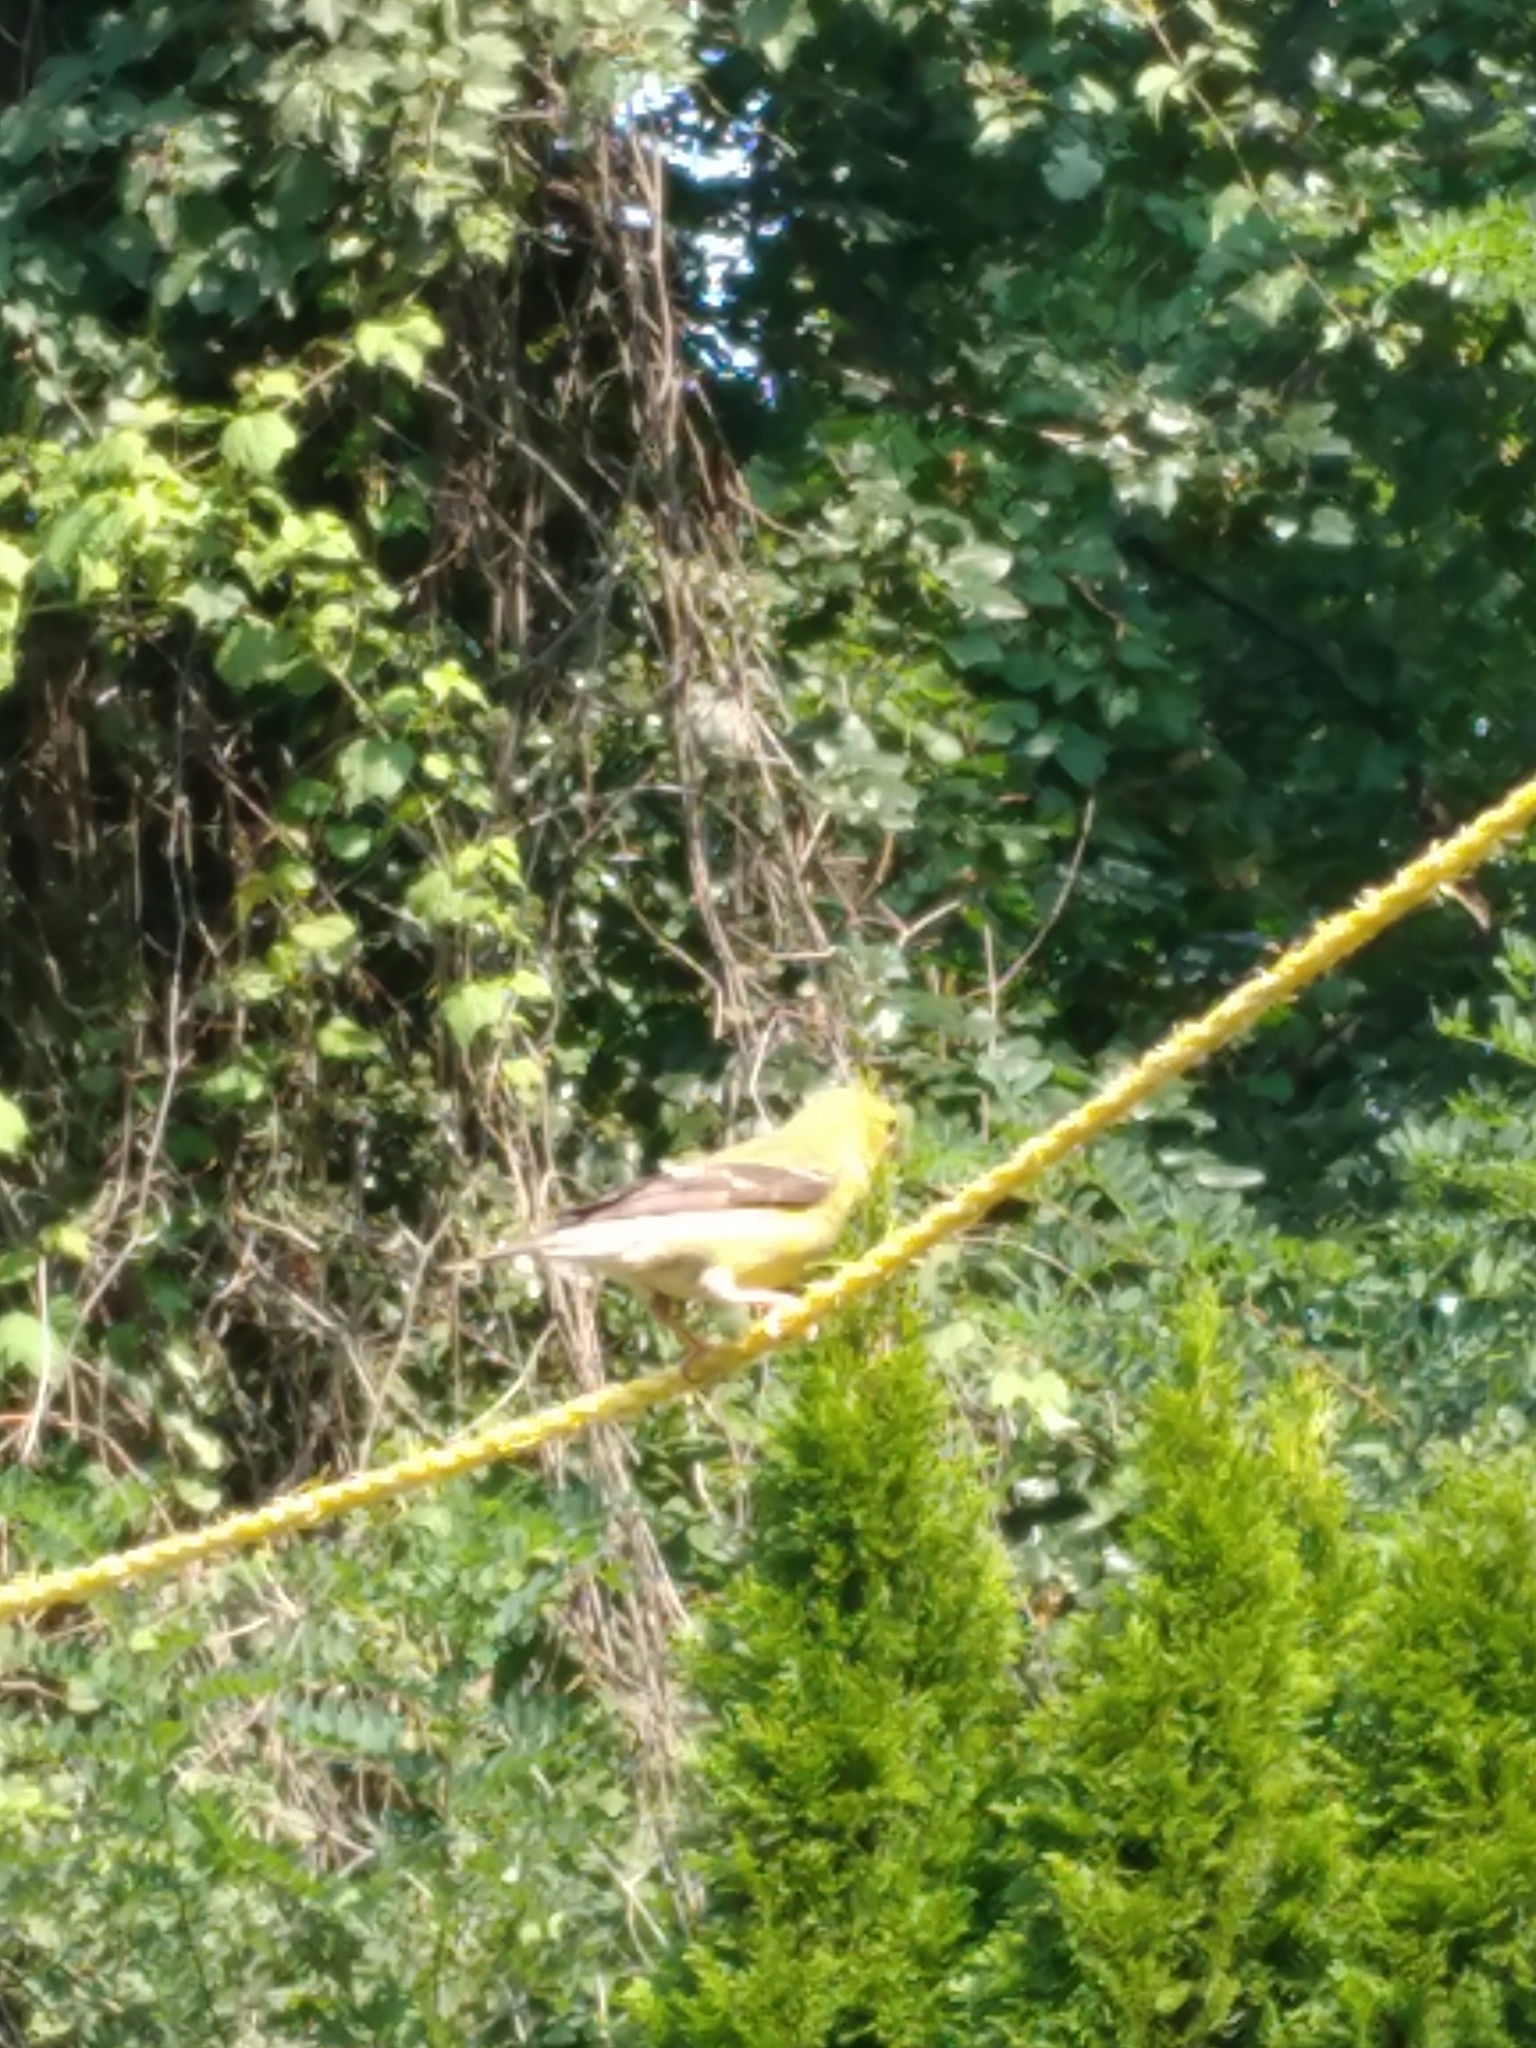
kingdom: Animalia
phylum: Chordata
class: Aves
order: Passeriformes
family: Fringillidae
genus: Spinus
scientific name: Spinus tristis
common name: American goldfinch
